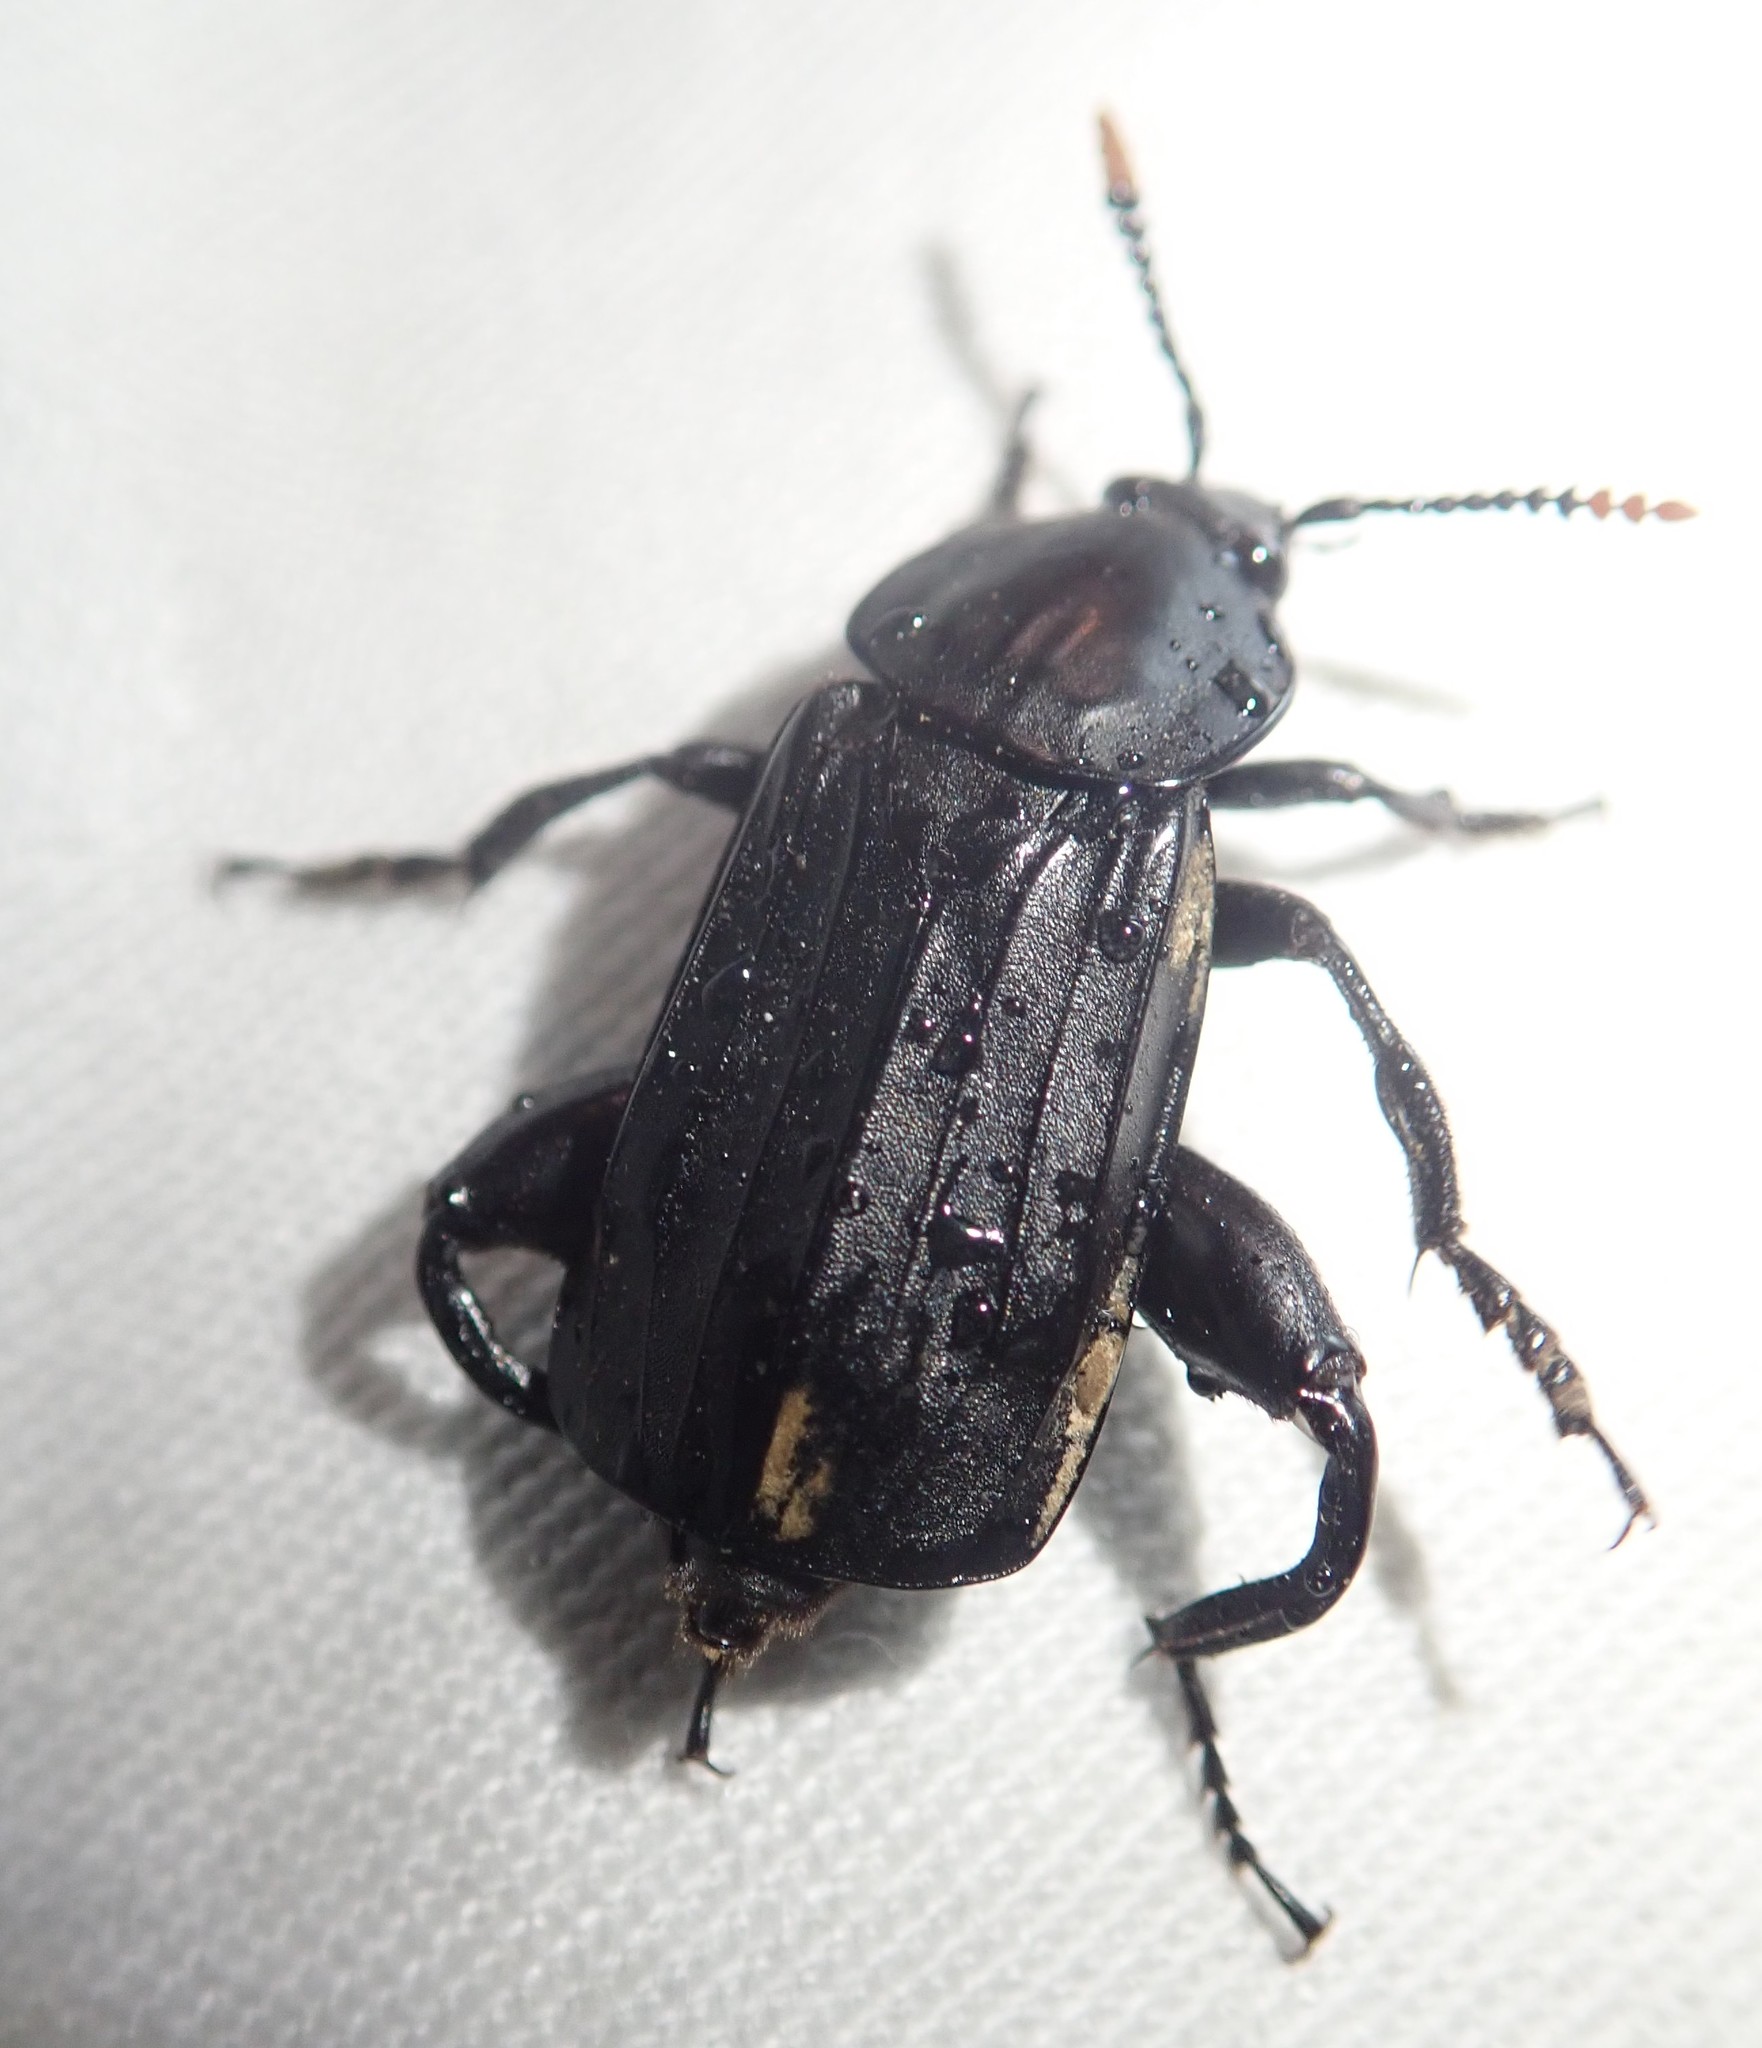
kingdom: Animalia
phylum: Arthropoda
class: Insecta
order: Coleoptera
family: Staphylinidae
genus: Necrodes
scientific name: Necrodes littoralis
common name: Shore sexton beetle
